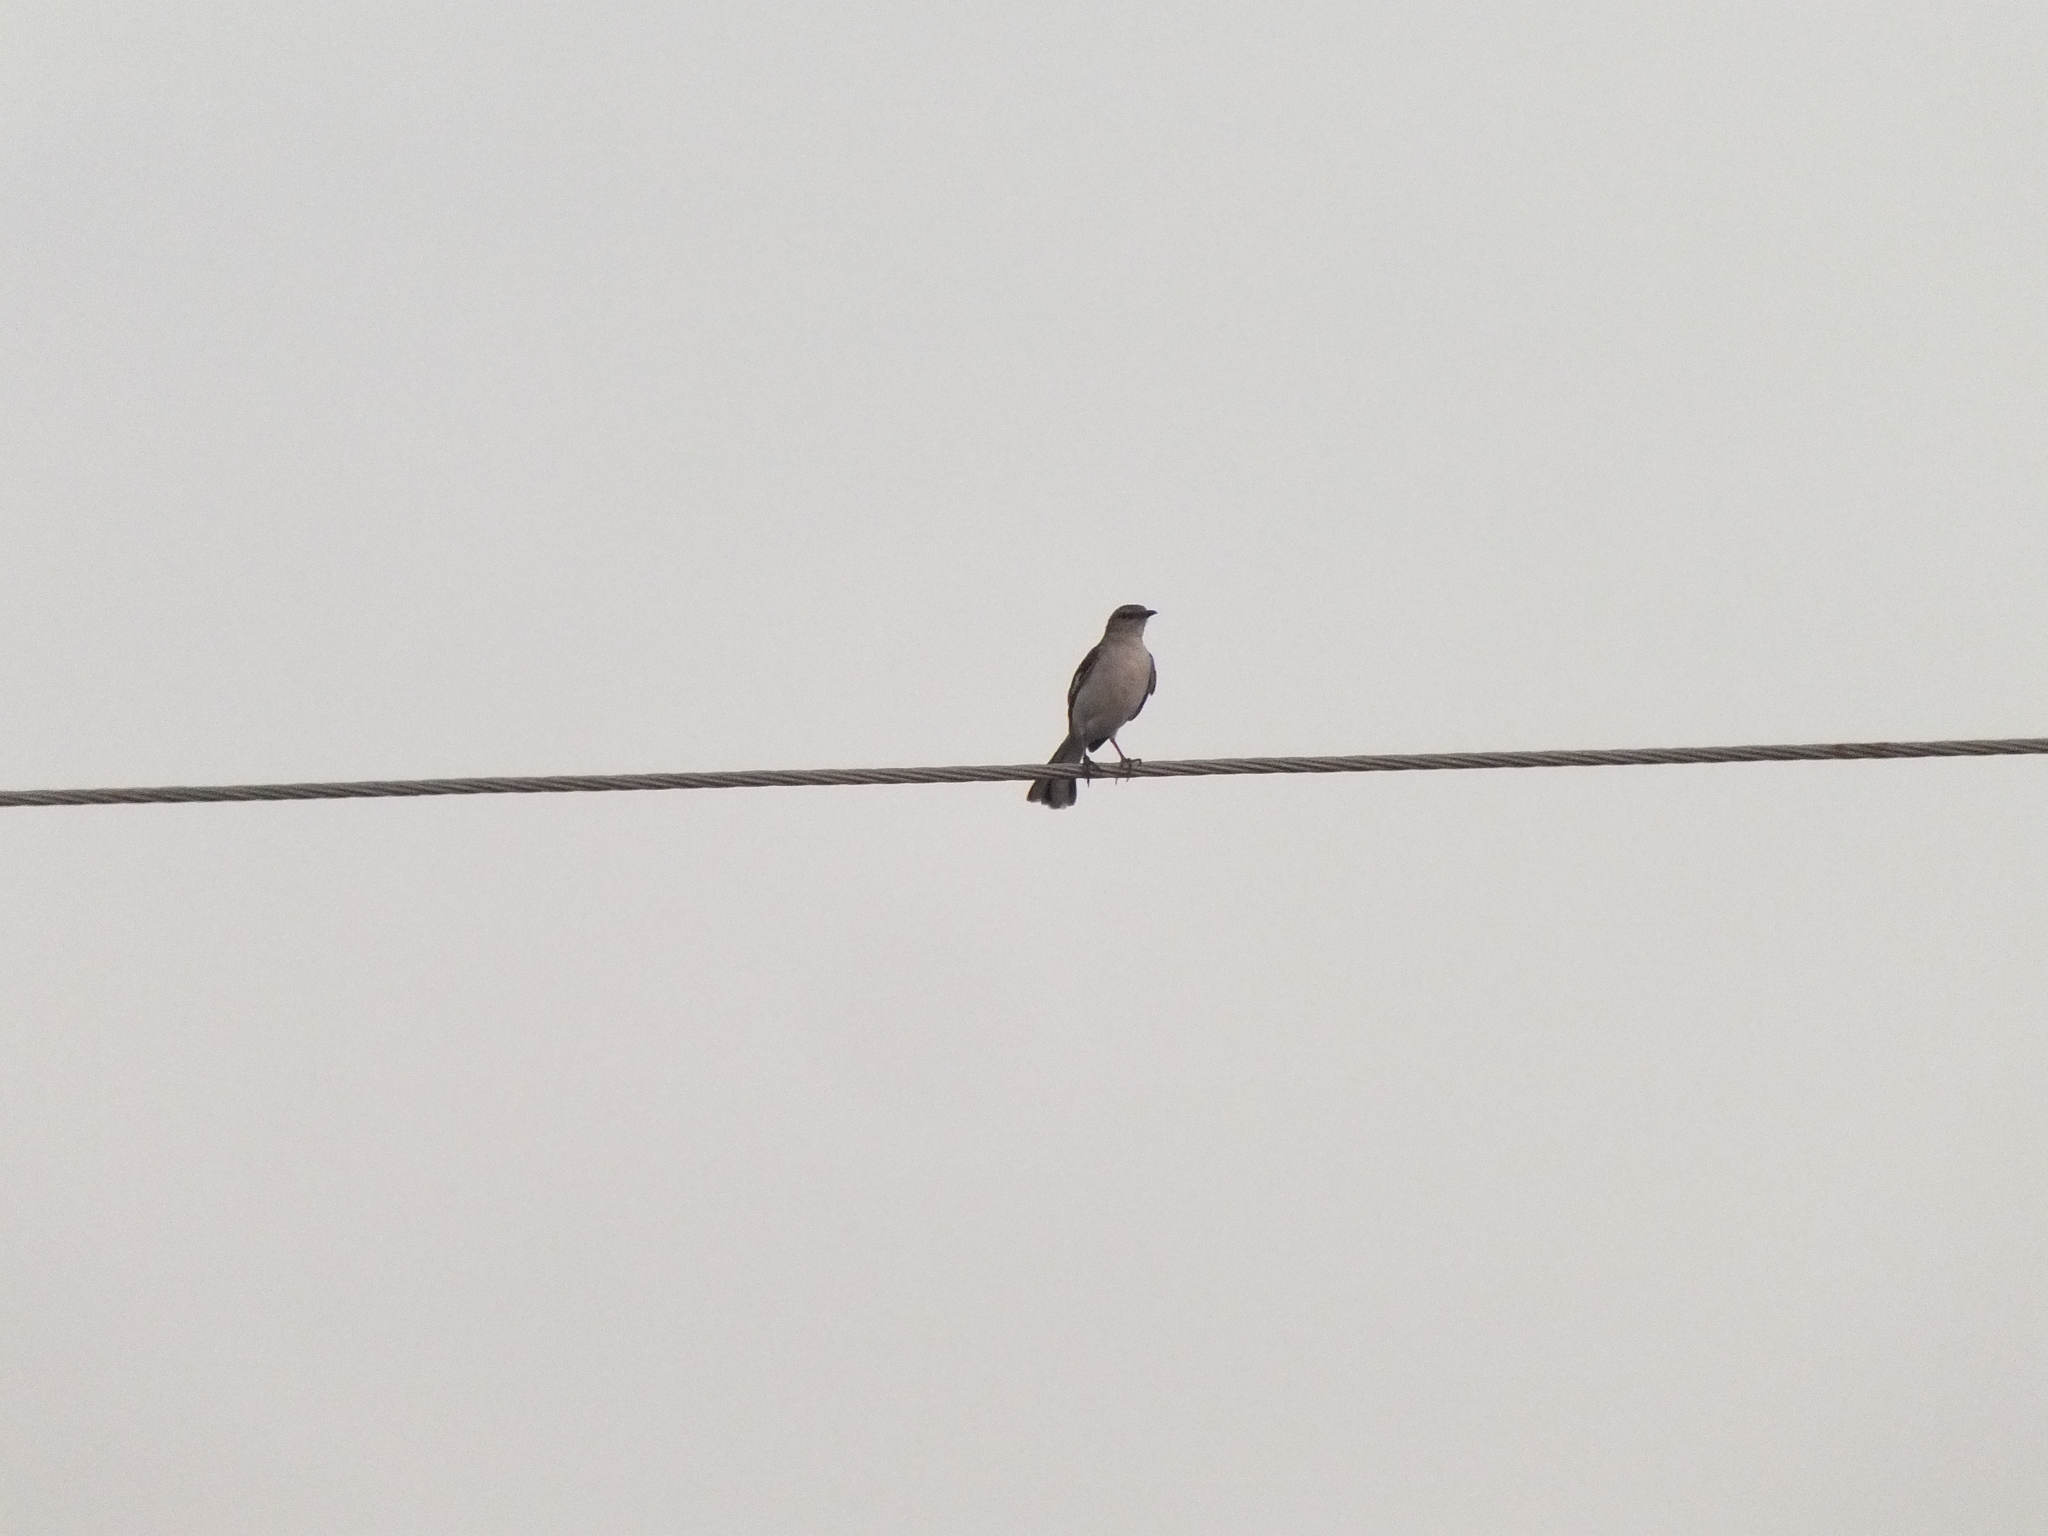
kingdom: Animalia
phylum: Chordata
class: Aves
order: Passeriformes
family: Mimidae
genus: Mimus
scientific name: Mimus polyglottos
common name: Northern mockingbird
